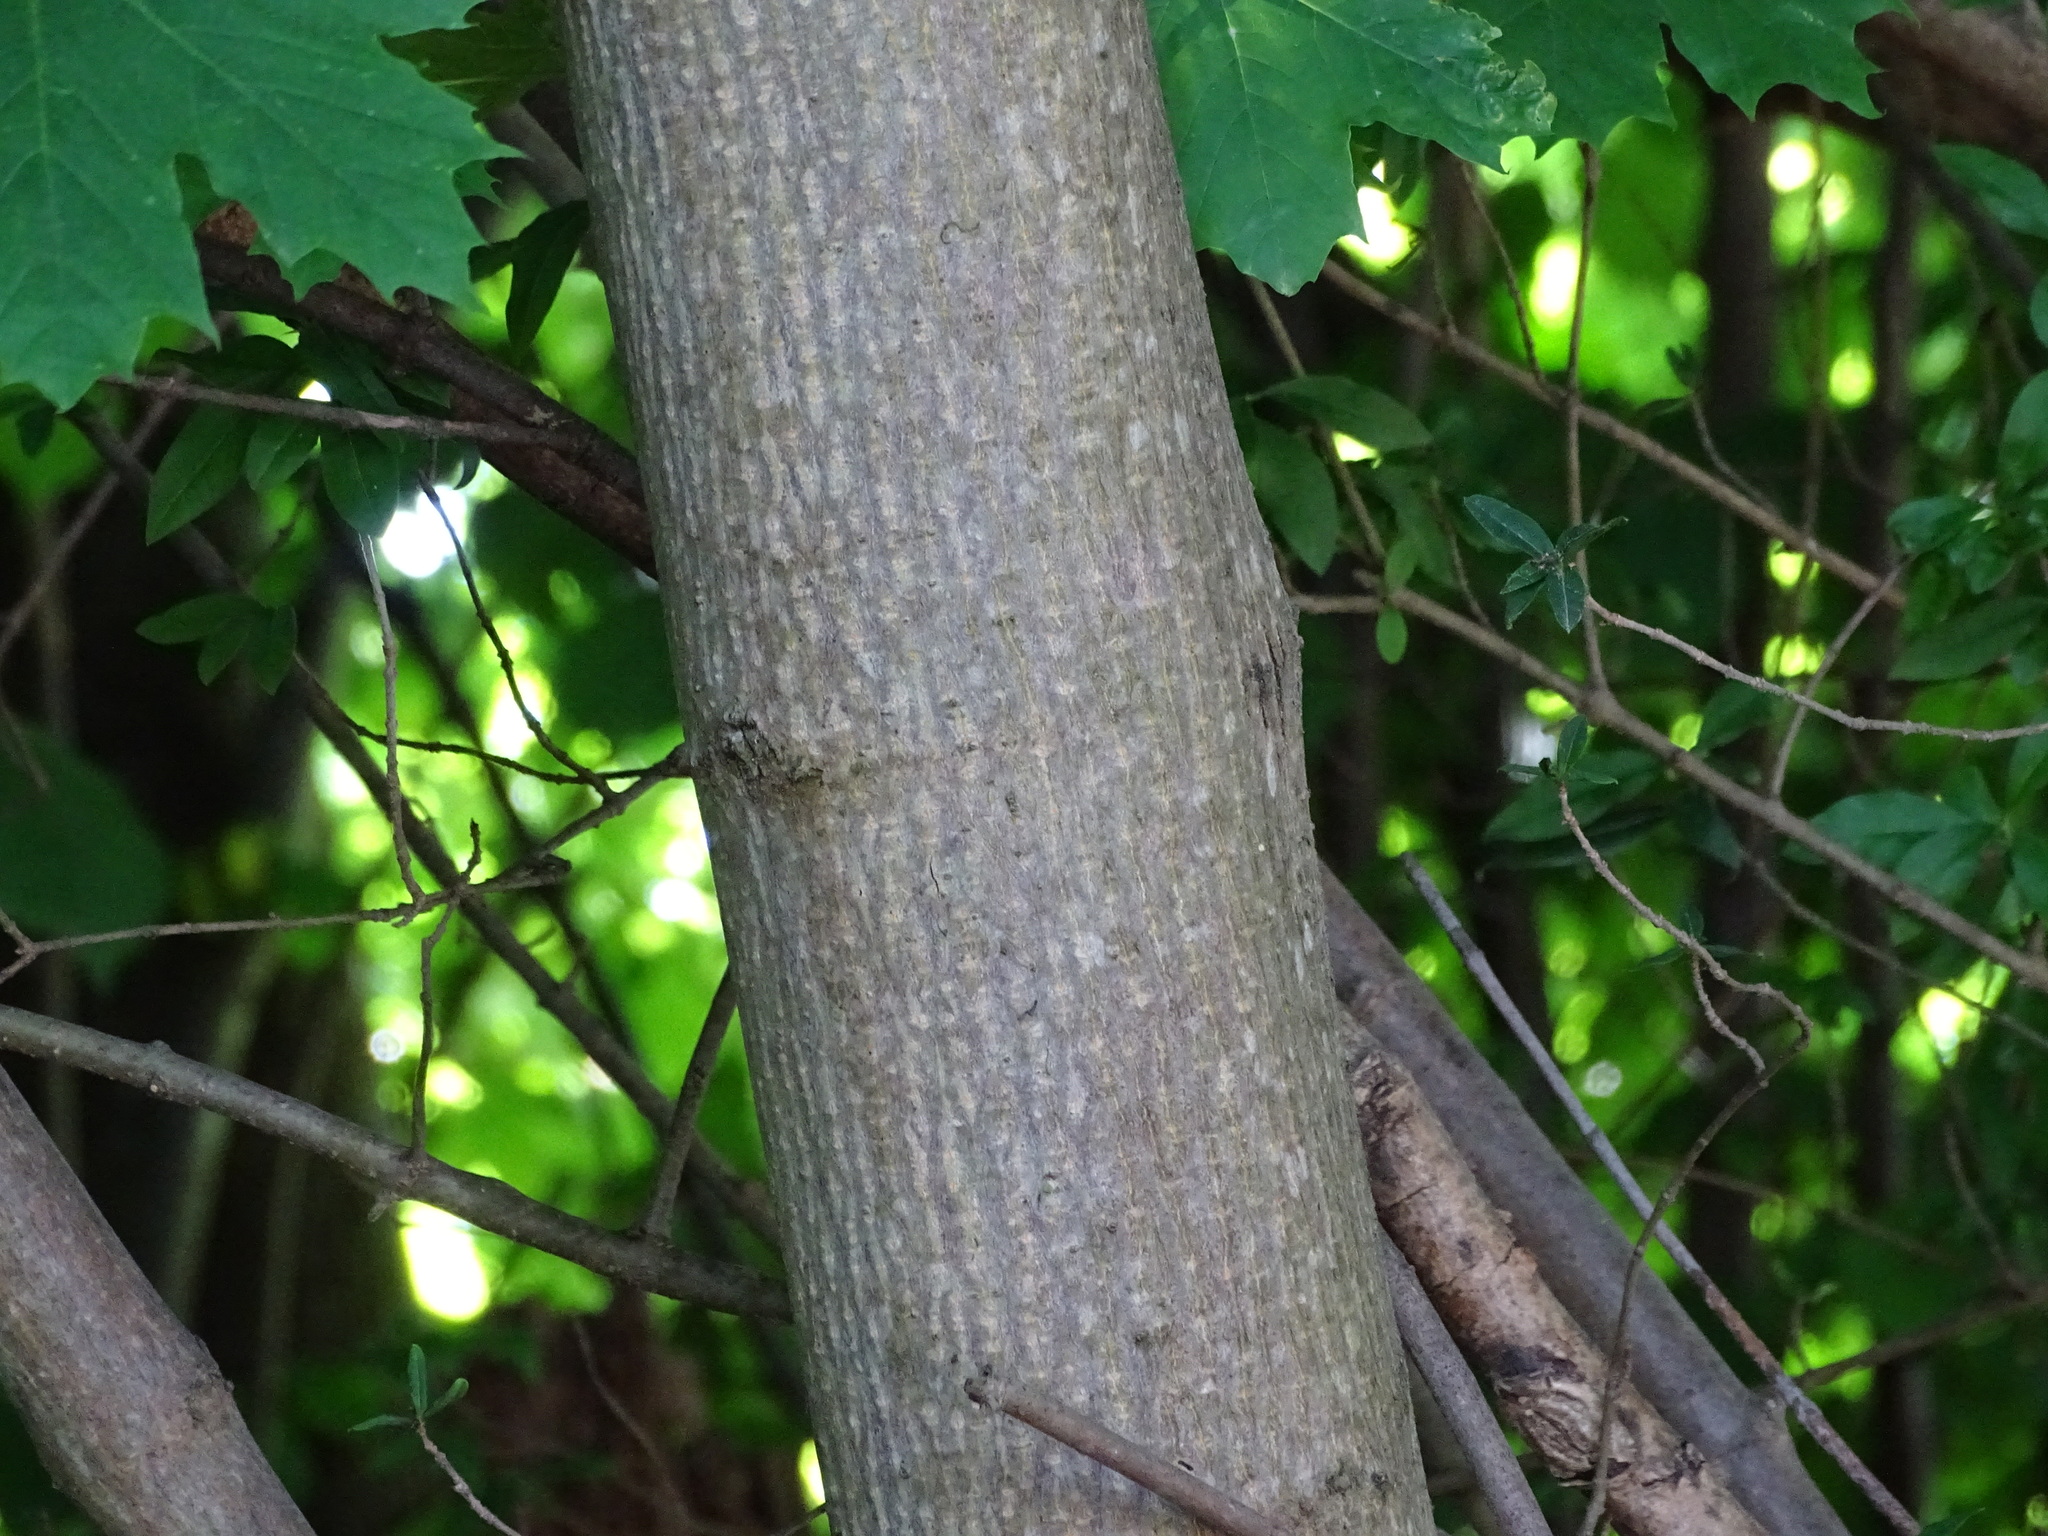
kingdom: Plantae
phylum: Tracheophyta
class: Magnoliopsida
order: Sapindales
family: Sapindaceae
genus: Acer
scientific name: Acer platanoides
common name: Norway maple
